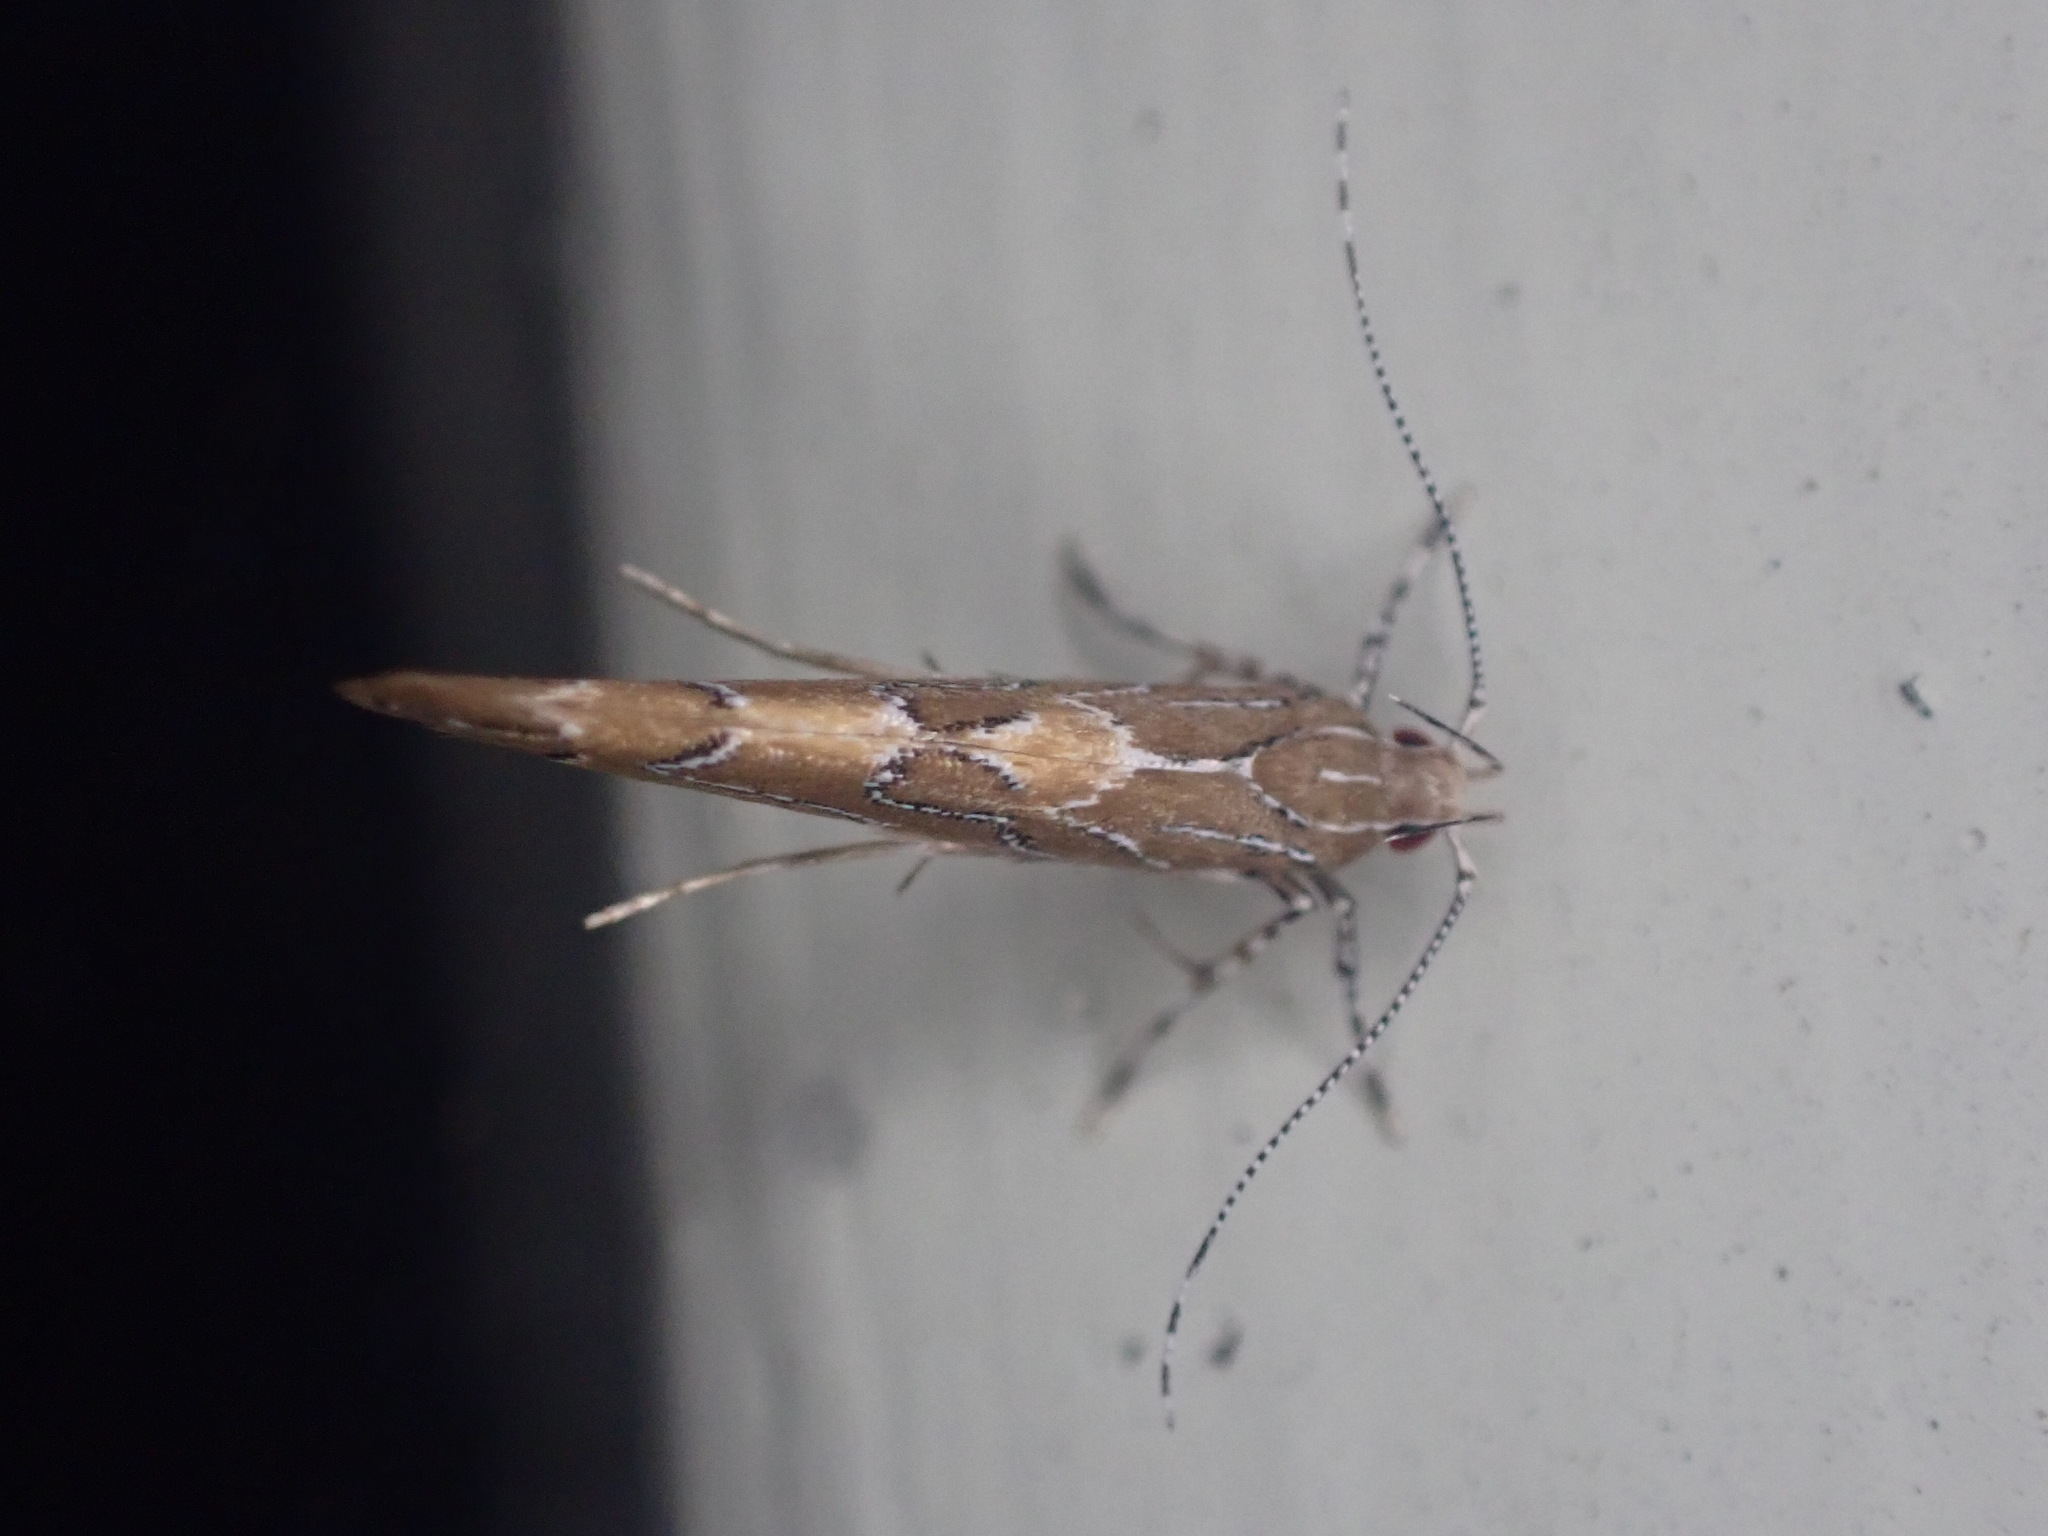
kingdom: Animalia
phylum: Arthropoda
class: Insecta
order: Lepidoptera
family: Cosmopterigidae
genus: Pyroderces
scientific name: Pyroderces apparitella
